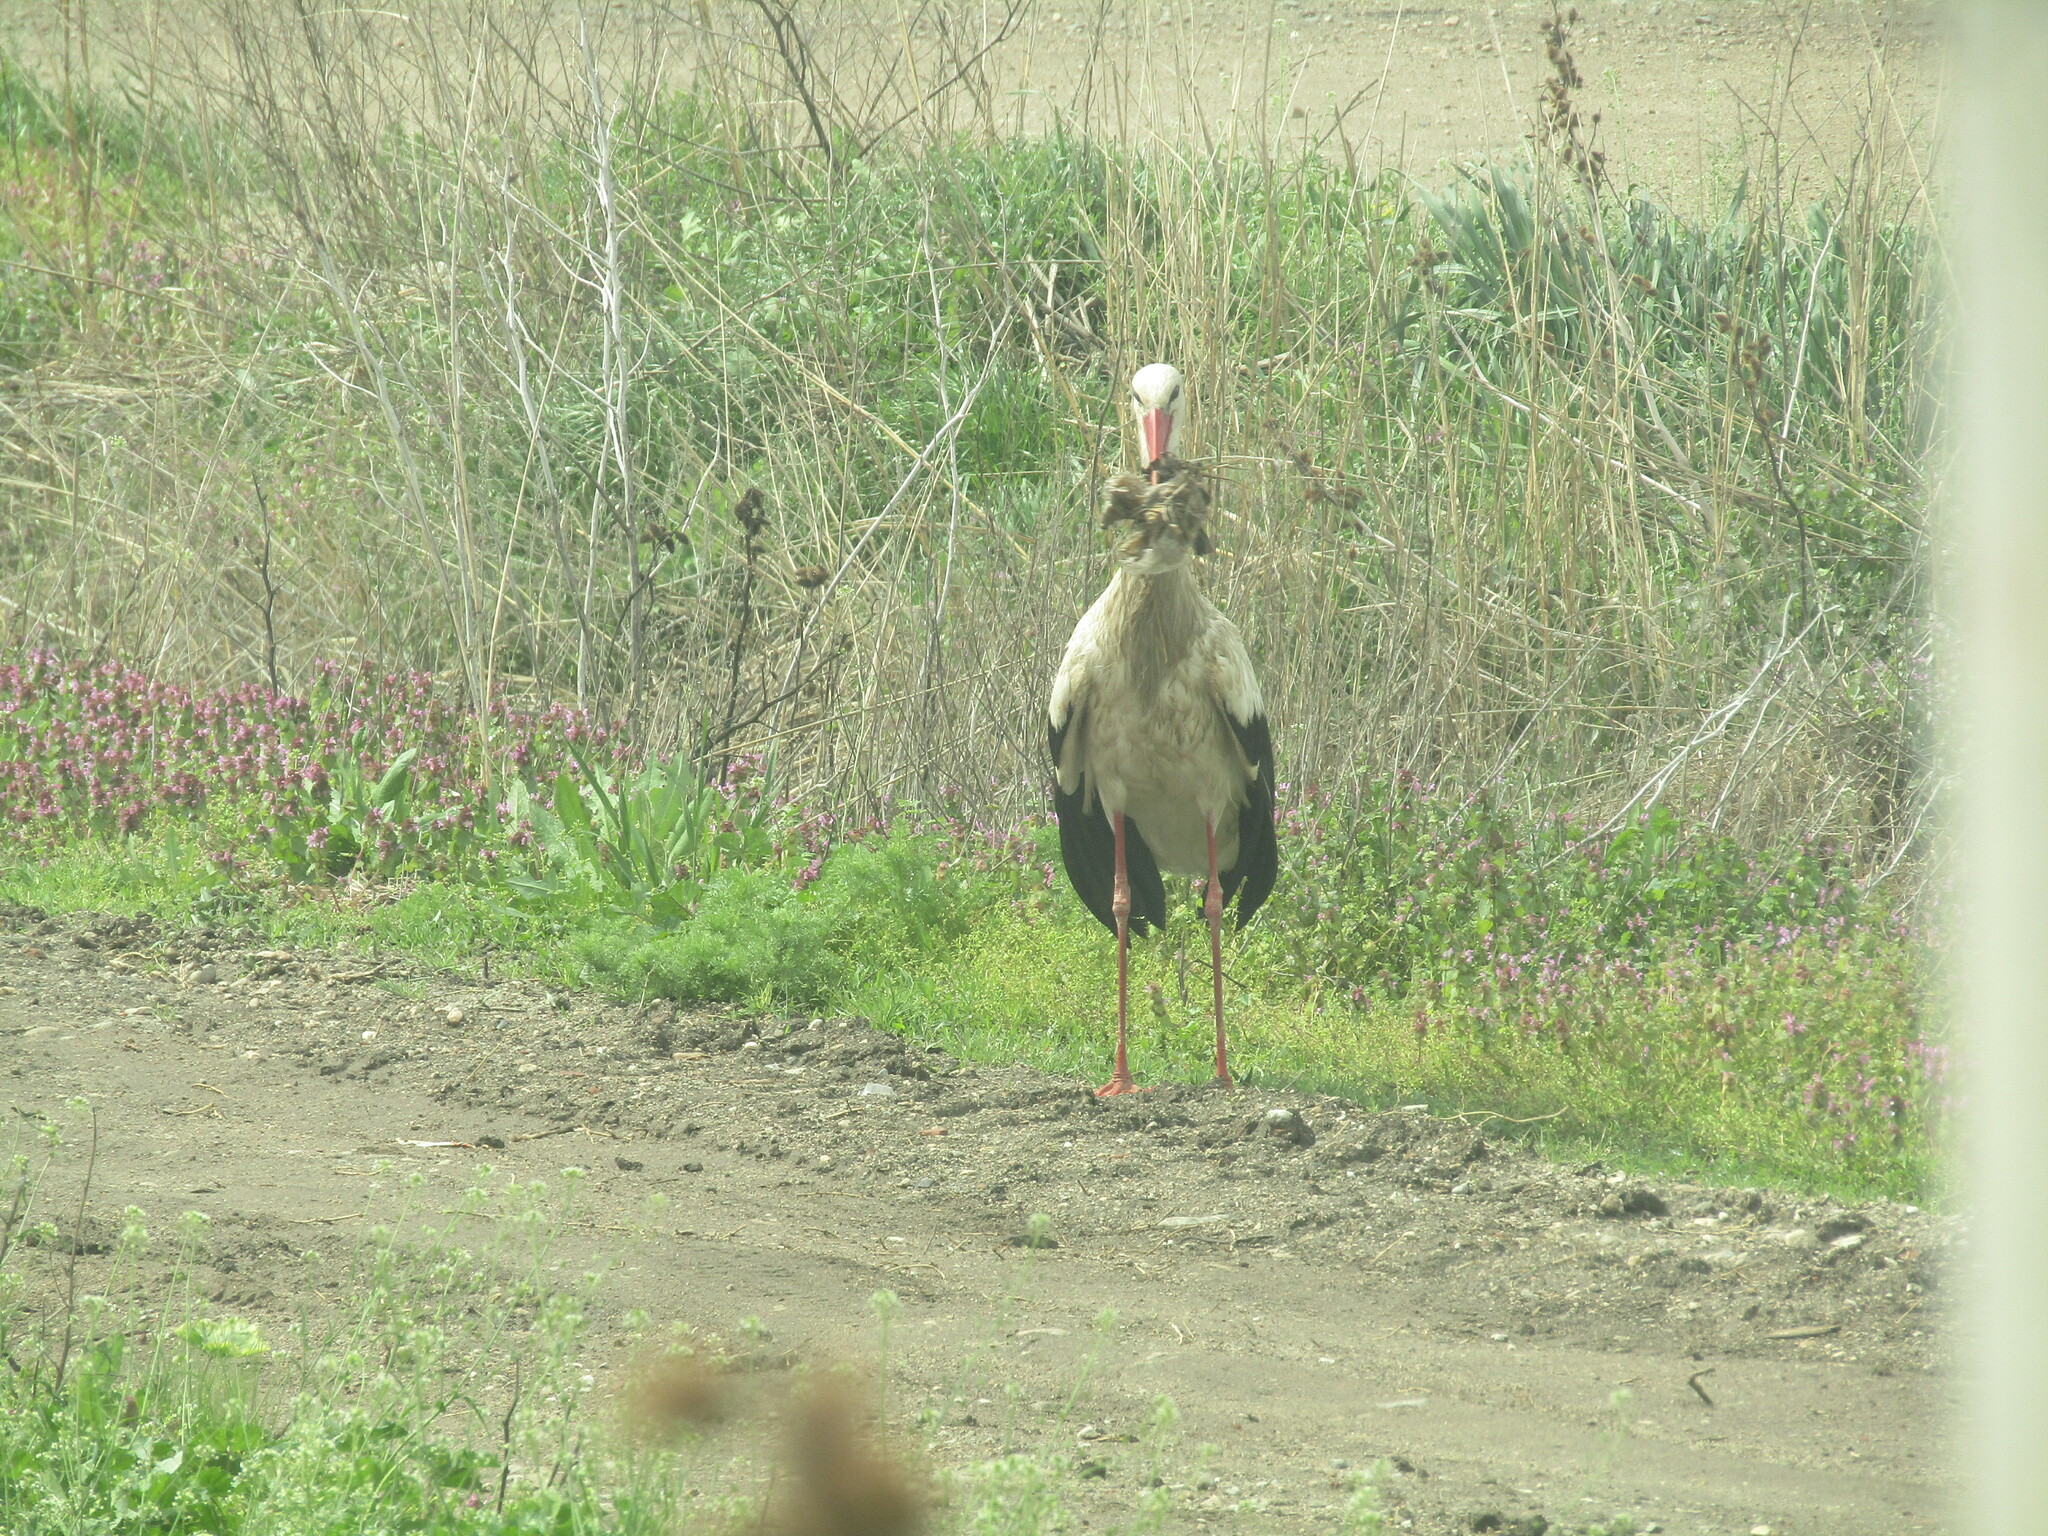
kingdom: Animalia
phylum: Chordata
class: Aves
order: Ciconiiformes
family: Ciconiidae
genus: Ciconia
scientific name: Ciconia ciconia
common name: White stork
